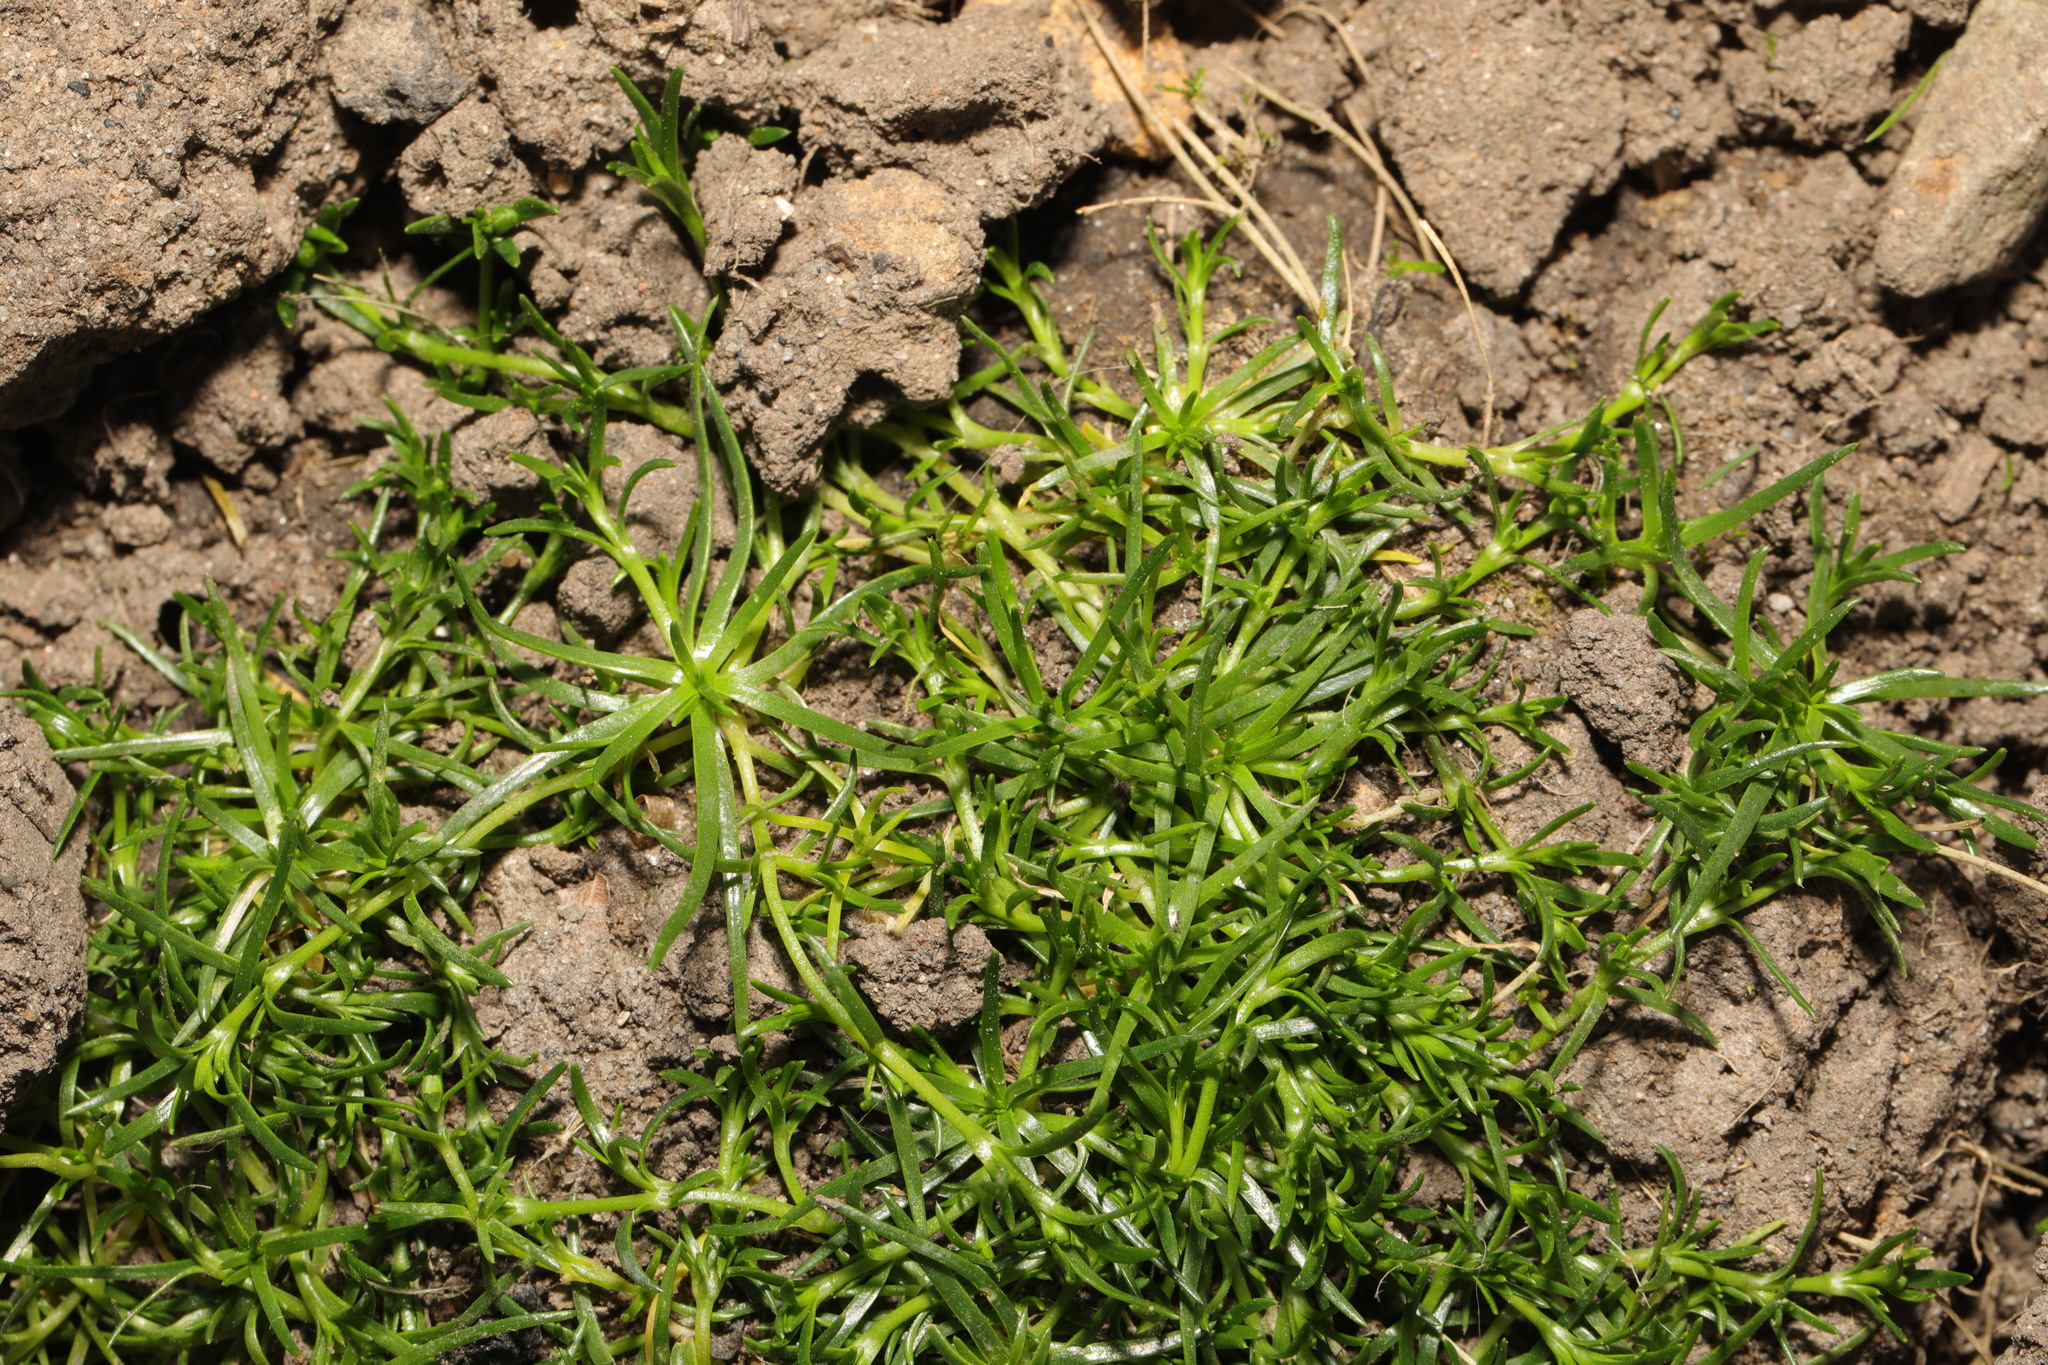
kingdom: Plantae
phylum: Tracheophyta
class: Magnoliopsida
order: Caryophyllales
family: Caryophyllaceae
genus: Sagina
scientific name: Sagina procumbens
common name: Procumbent pearlwort
